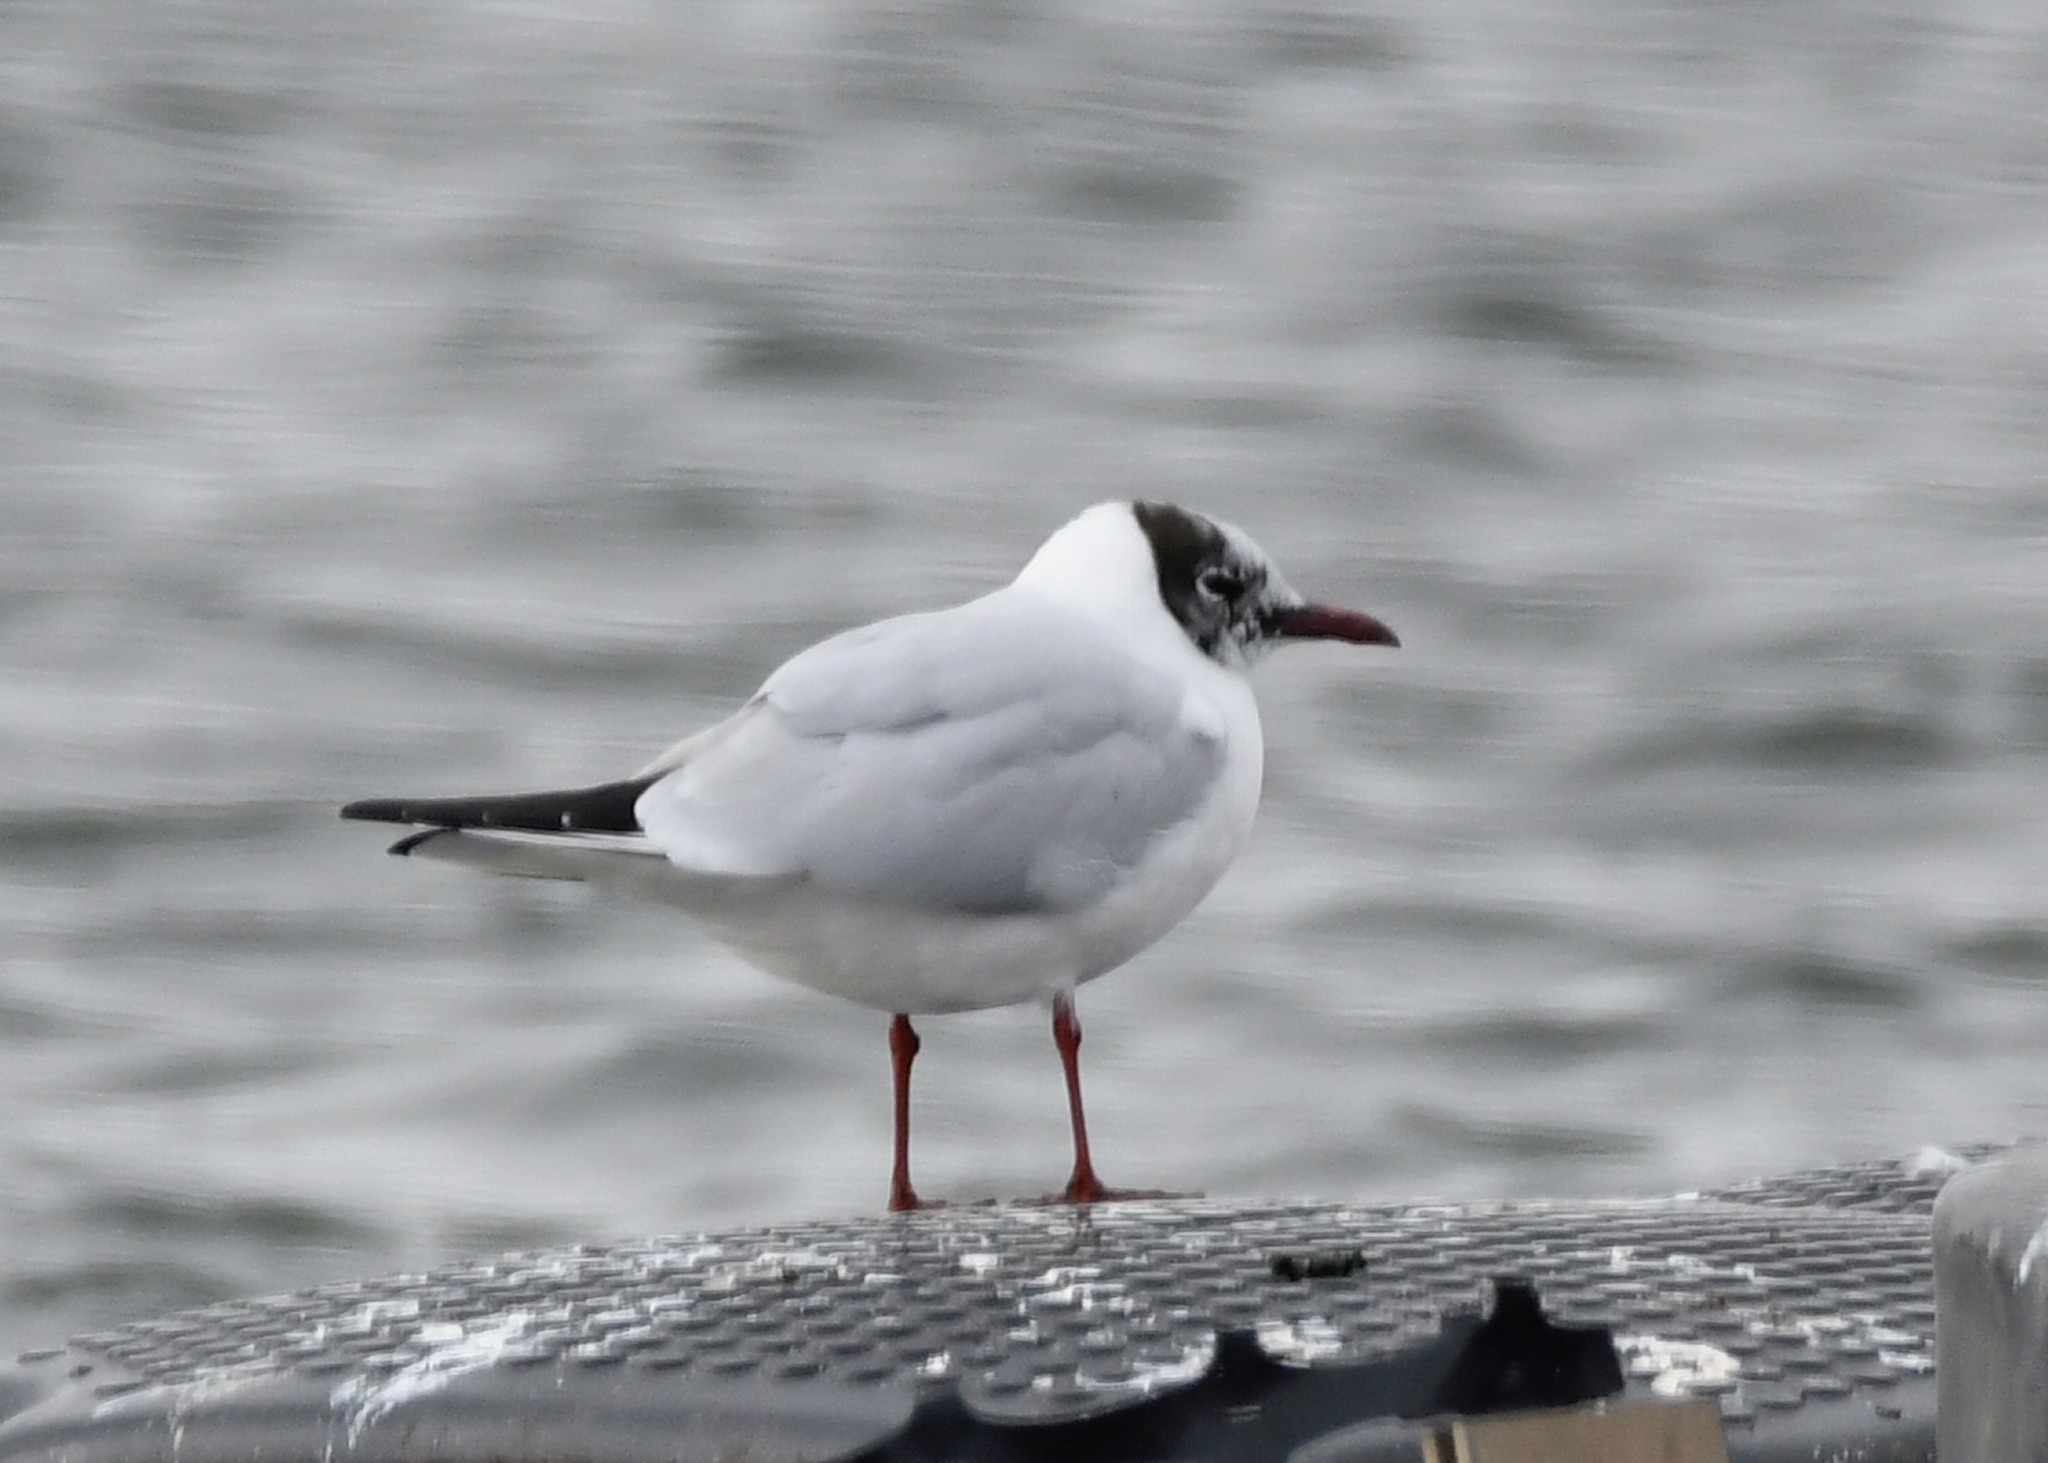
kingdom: Animalia
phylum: Chordata
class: Aves
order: Charadriiformes
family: Laridae
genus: Chroicocephalus
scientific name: Chroicocephalus ridibundus
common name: Black-headed gull
